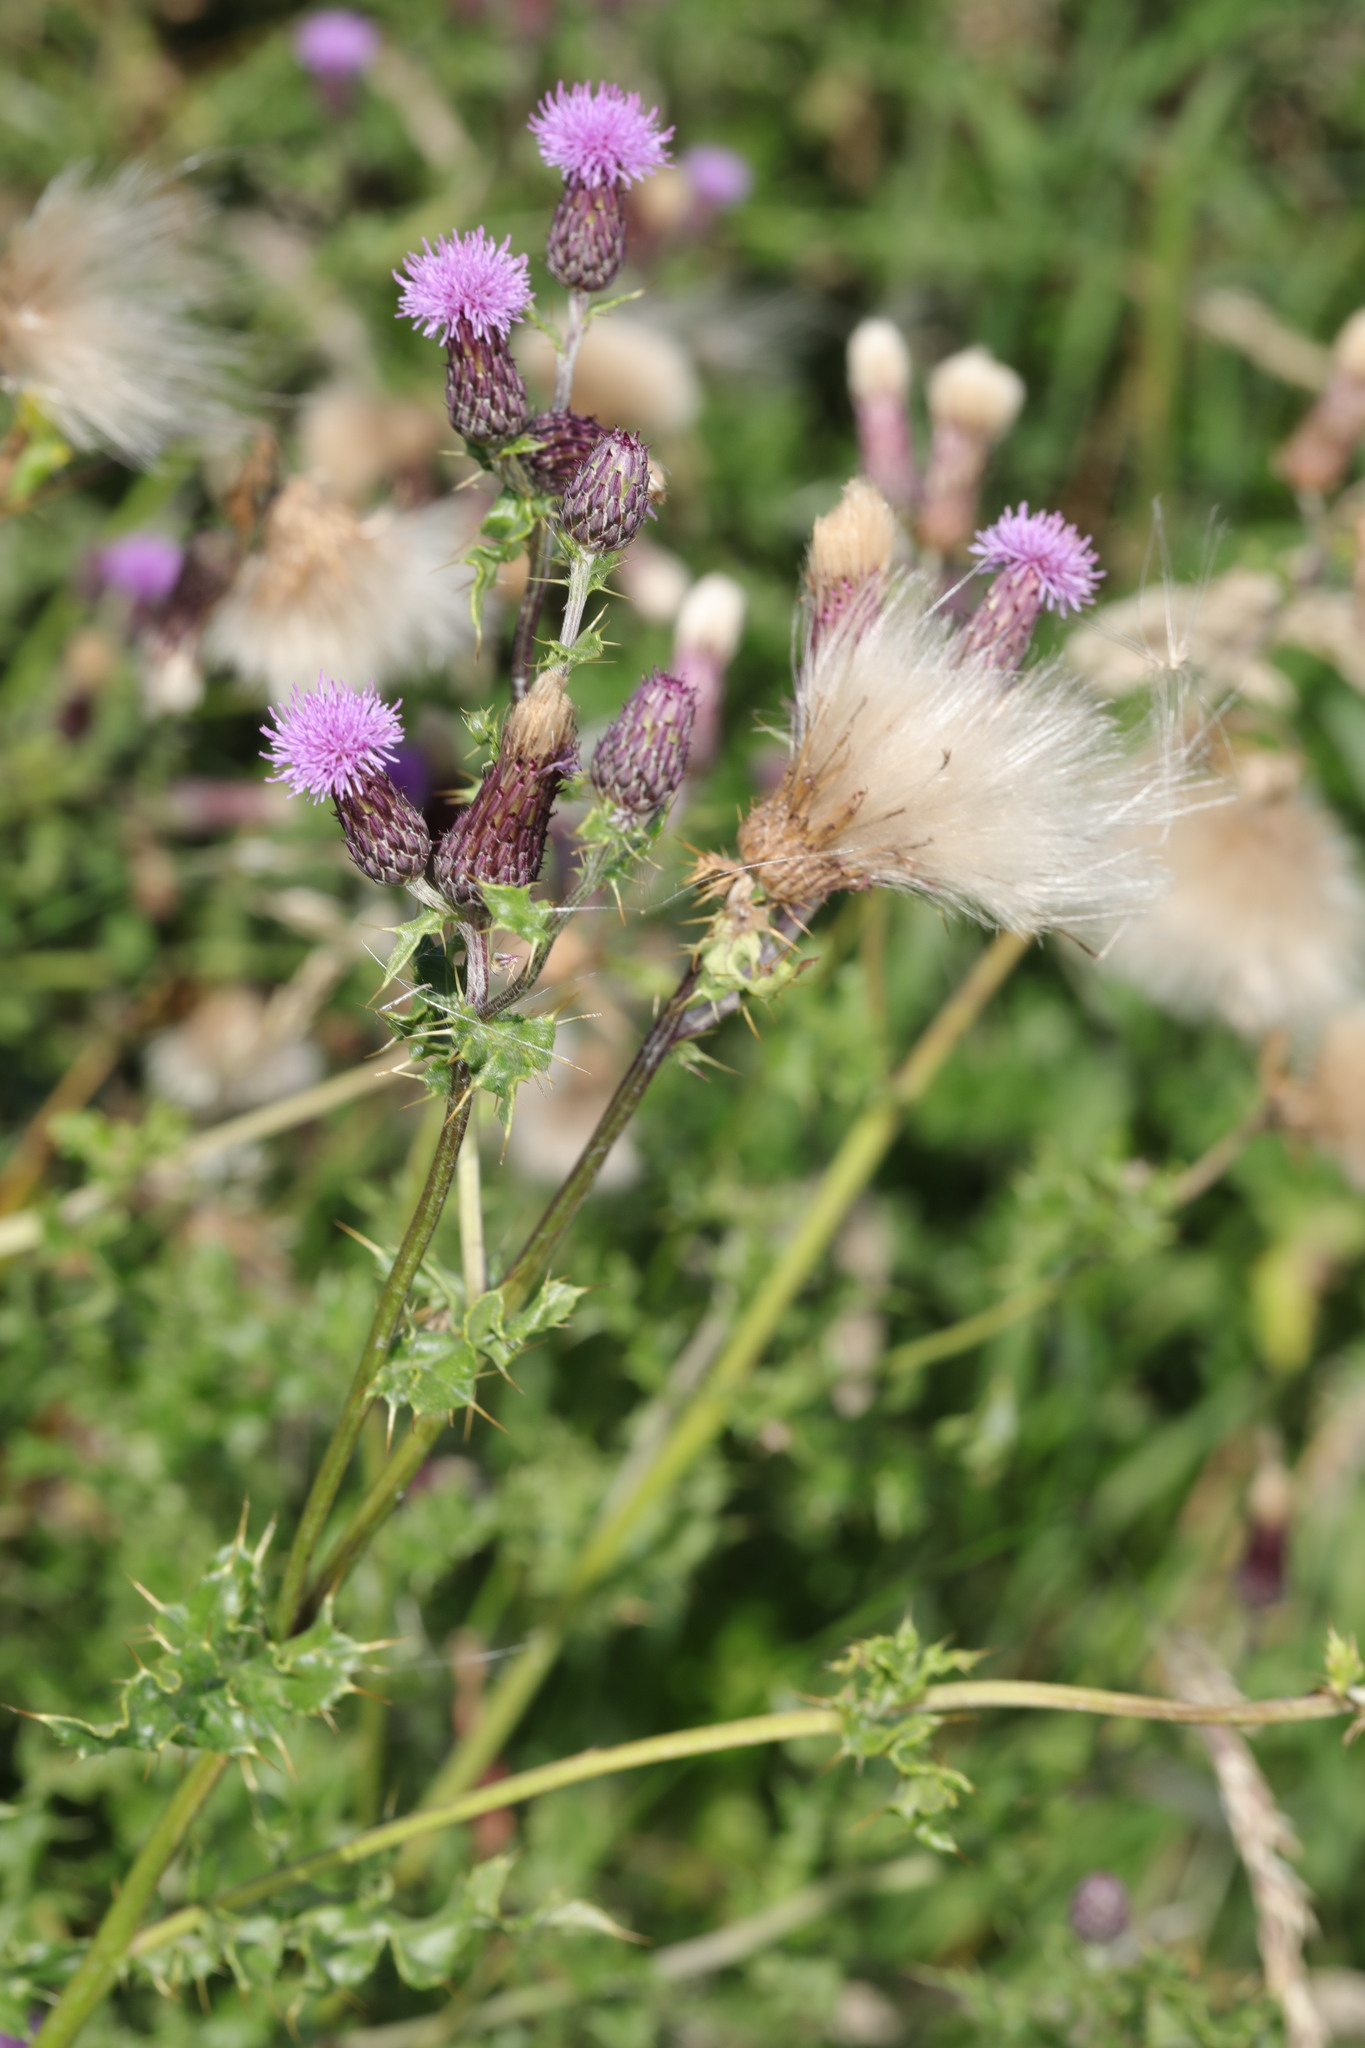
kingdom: Plantae
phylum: Tracheophyta
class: Magnoliopsida
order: Asterales
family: Asteraceae
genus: Cirsium
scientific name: Cirsium arvense
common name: Creeping thistle
